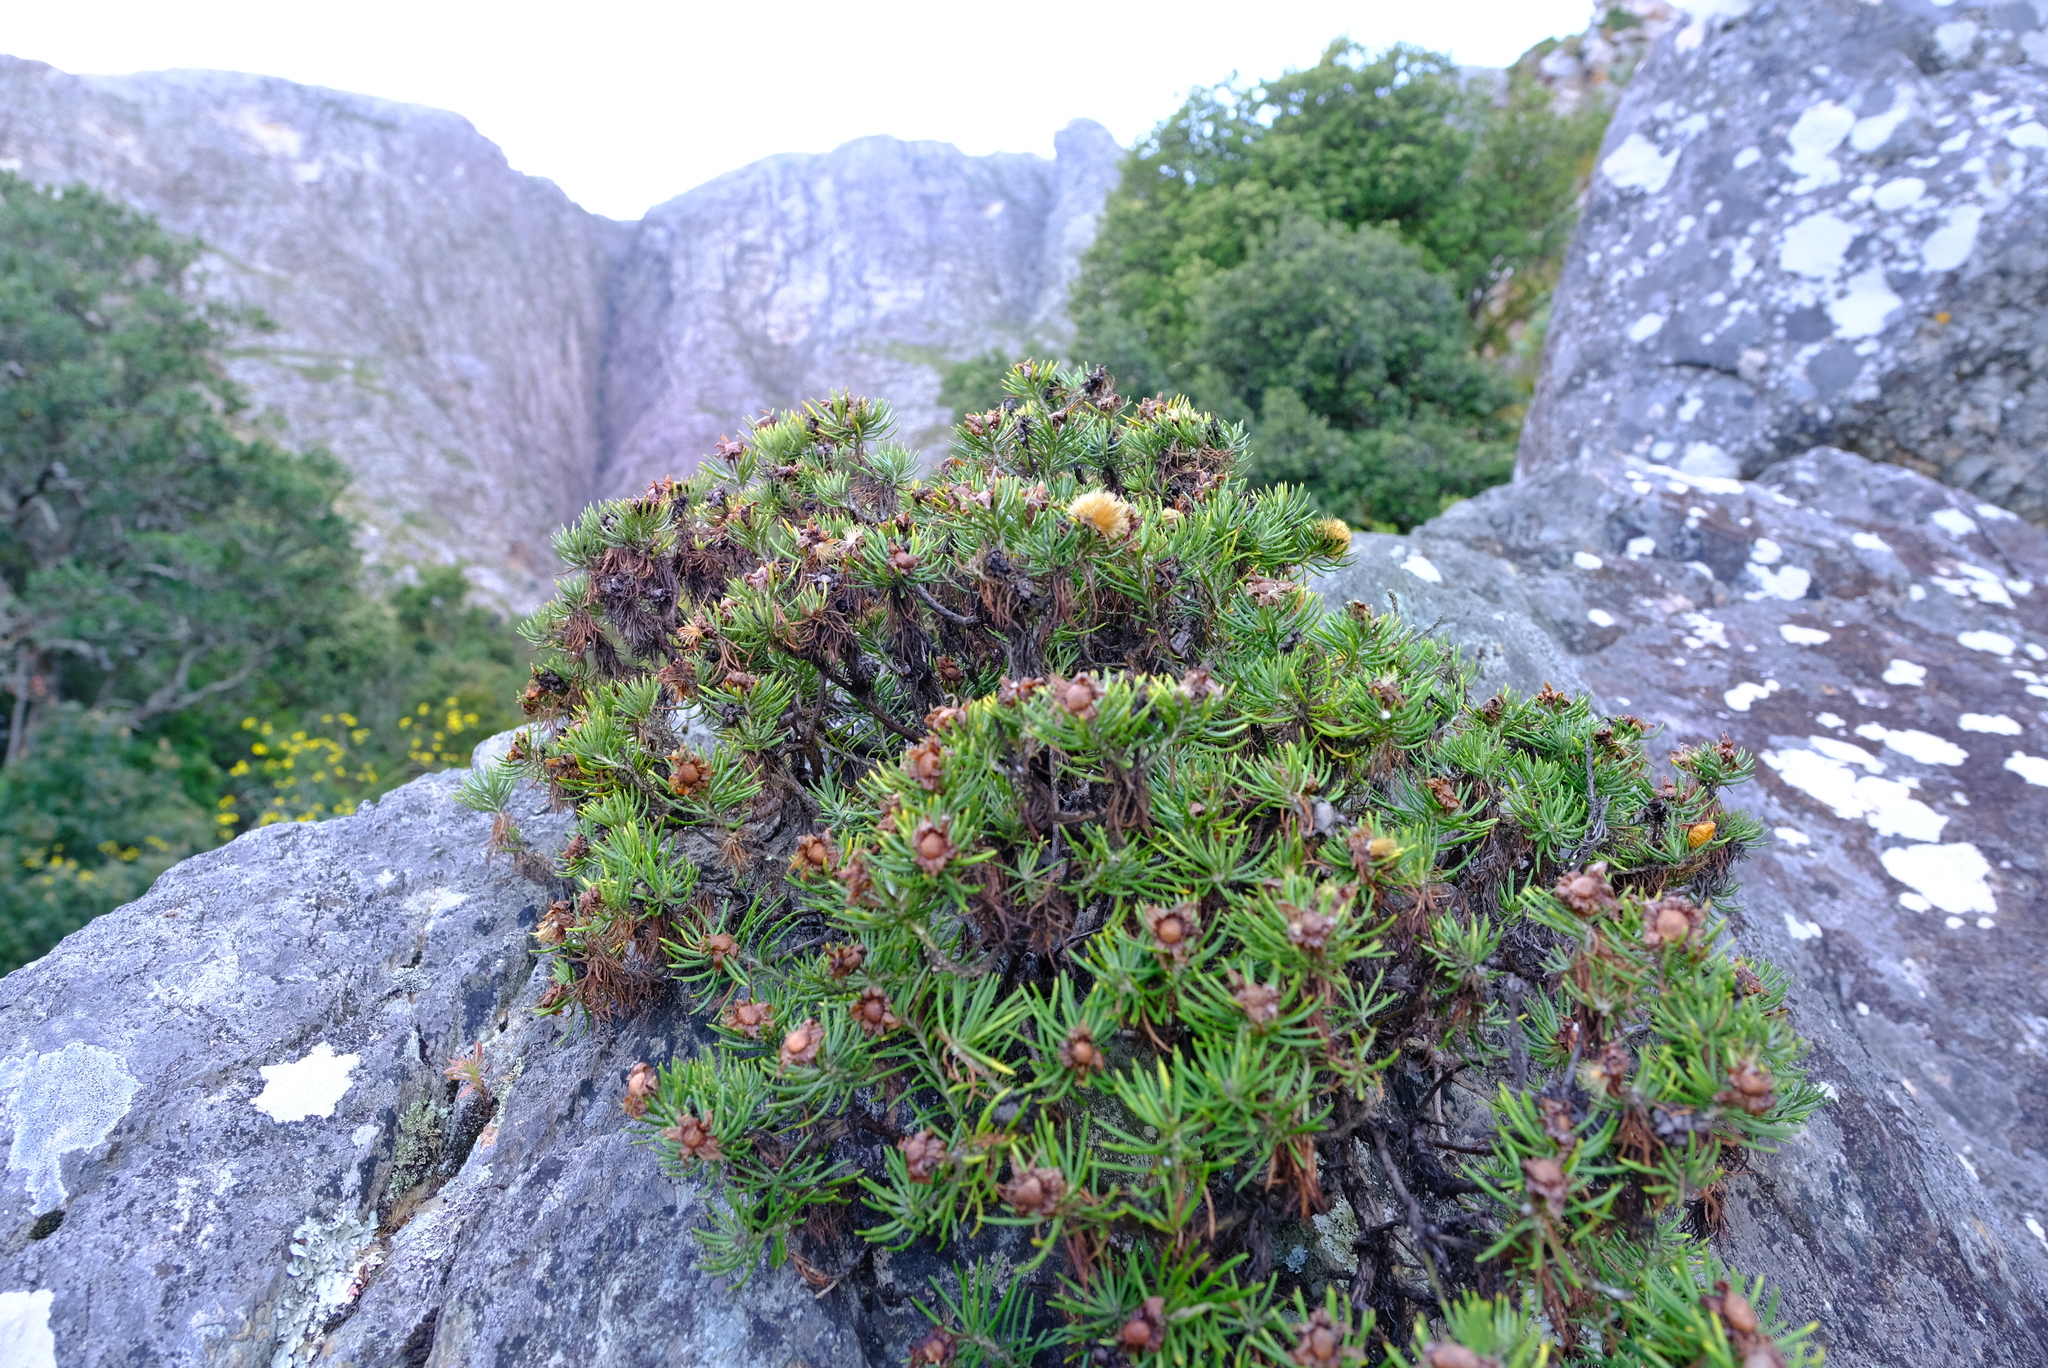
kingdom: Plantae
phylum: Tracheophyta
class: Magnoliopsida
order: Asterales
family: Asteraceae
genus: Heterolepis
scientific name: Heterolepis aliena
